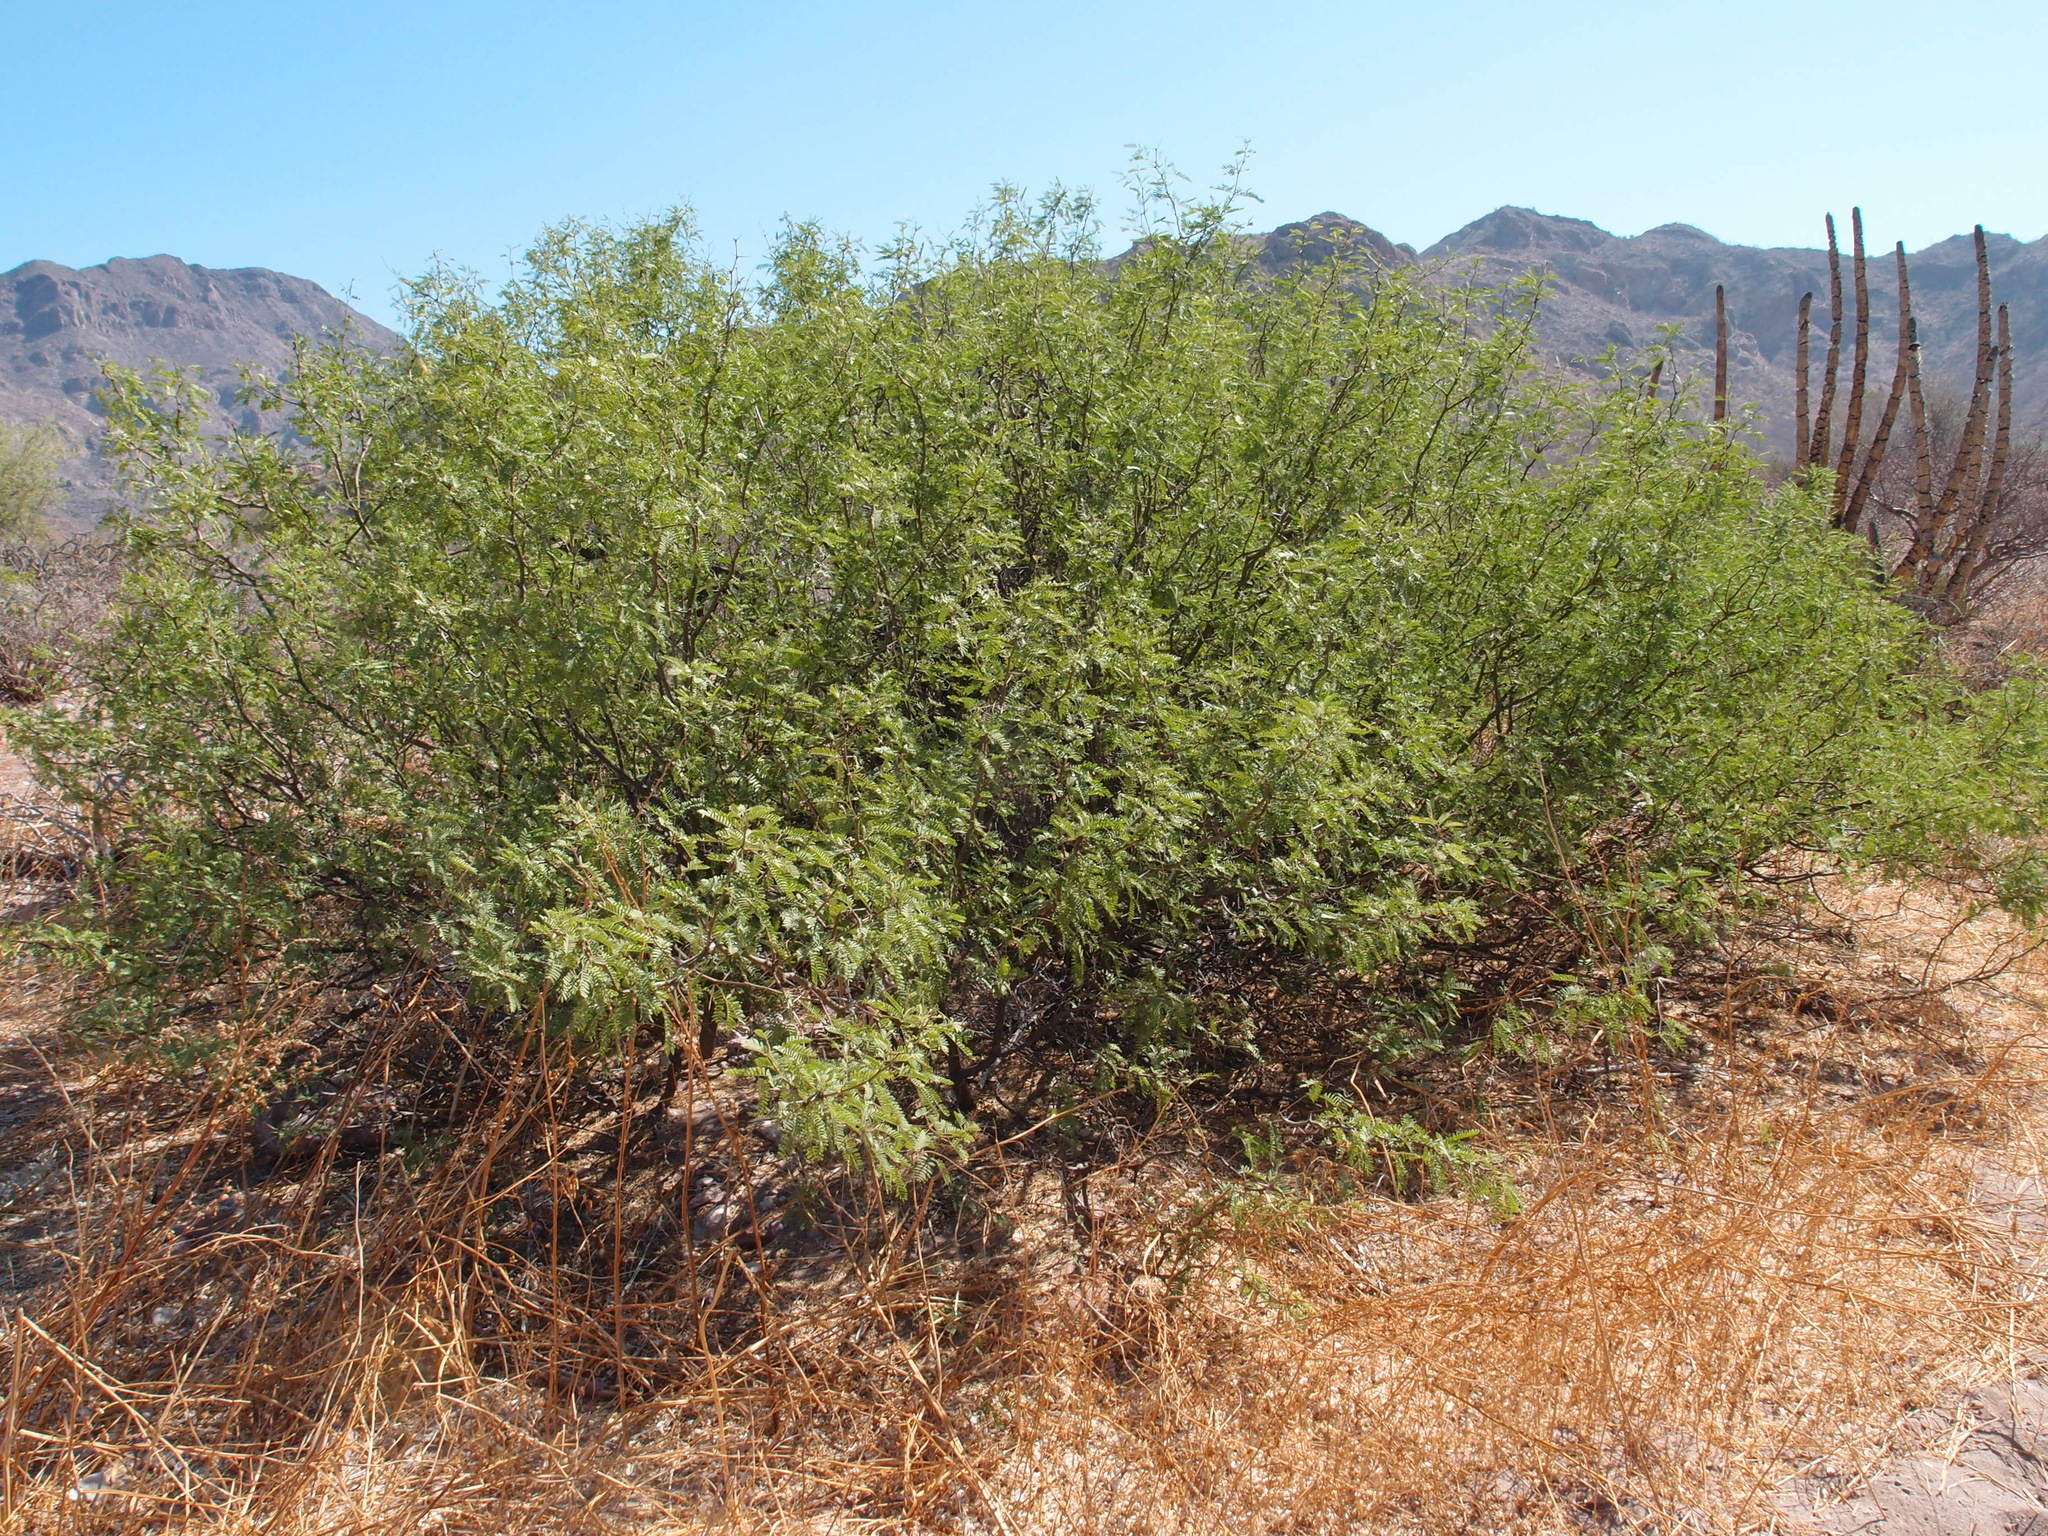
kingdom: Plantae
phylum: Tracheophyta
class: Magnoliopsida
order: Fabales
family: Fabaceae
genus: Prosopis
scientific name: Prosopis pubescens
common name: Screw-bean
